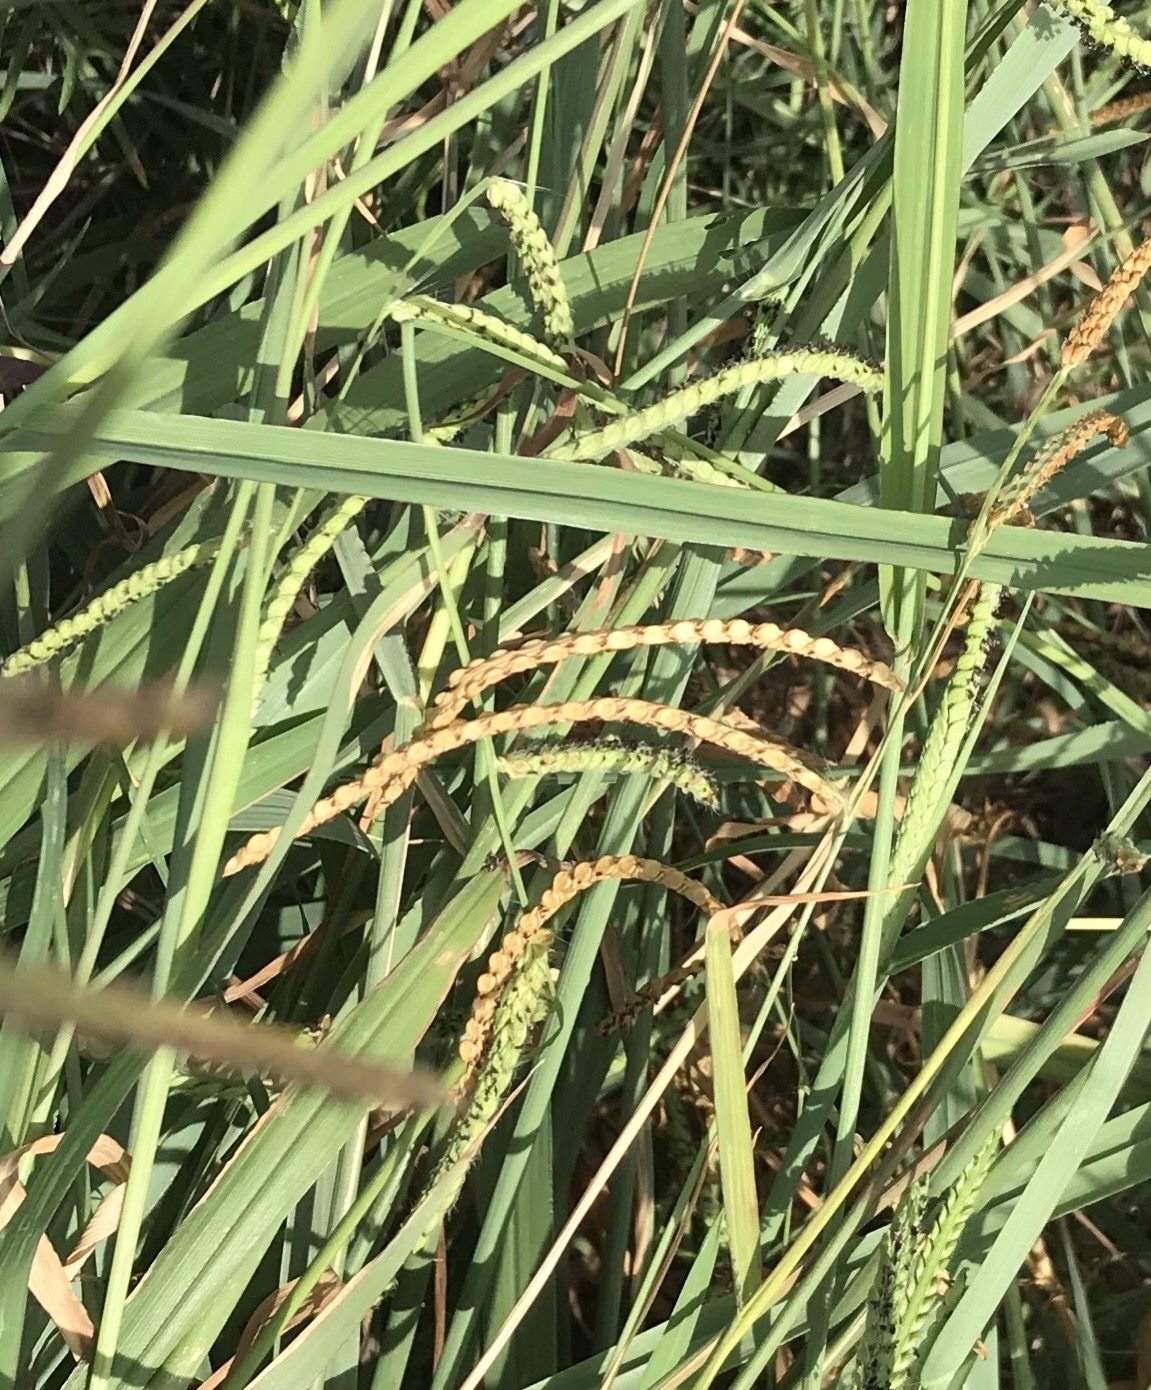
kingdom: Plantae
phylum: Tracheophyta
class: Liliopsida
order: Poales
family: Poaceae
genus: Paspalum
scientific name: Paspalum dilatatum
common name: Dallisgrass
